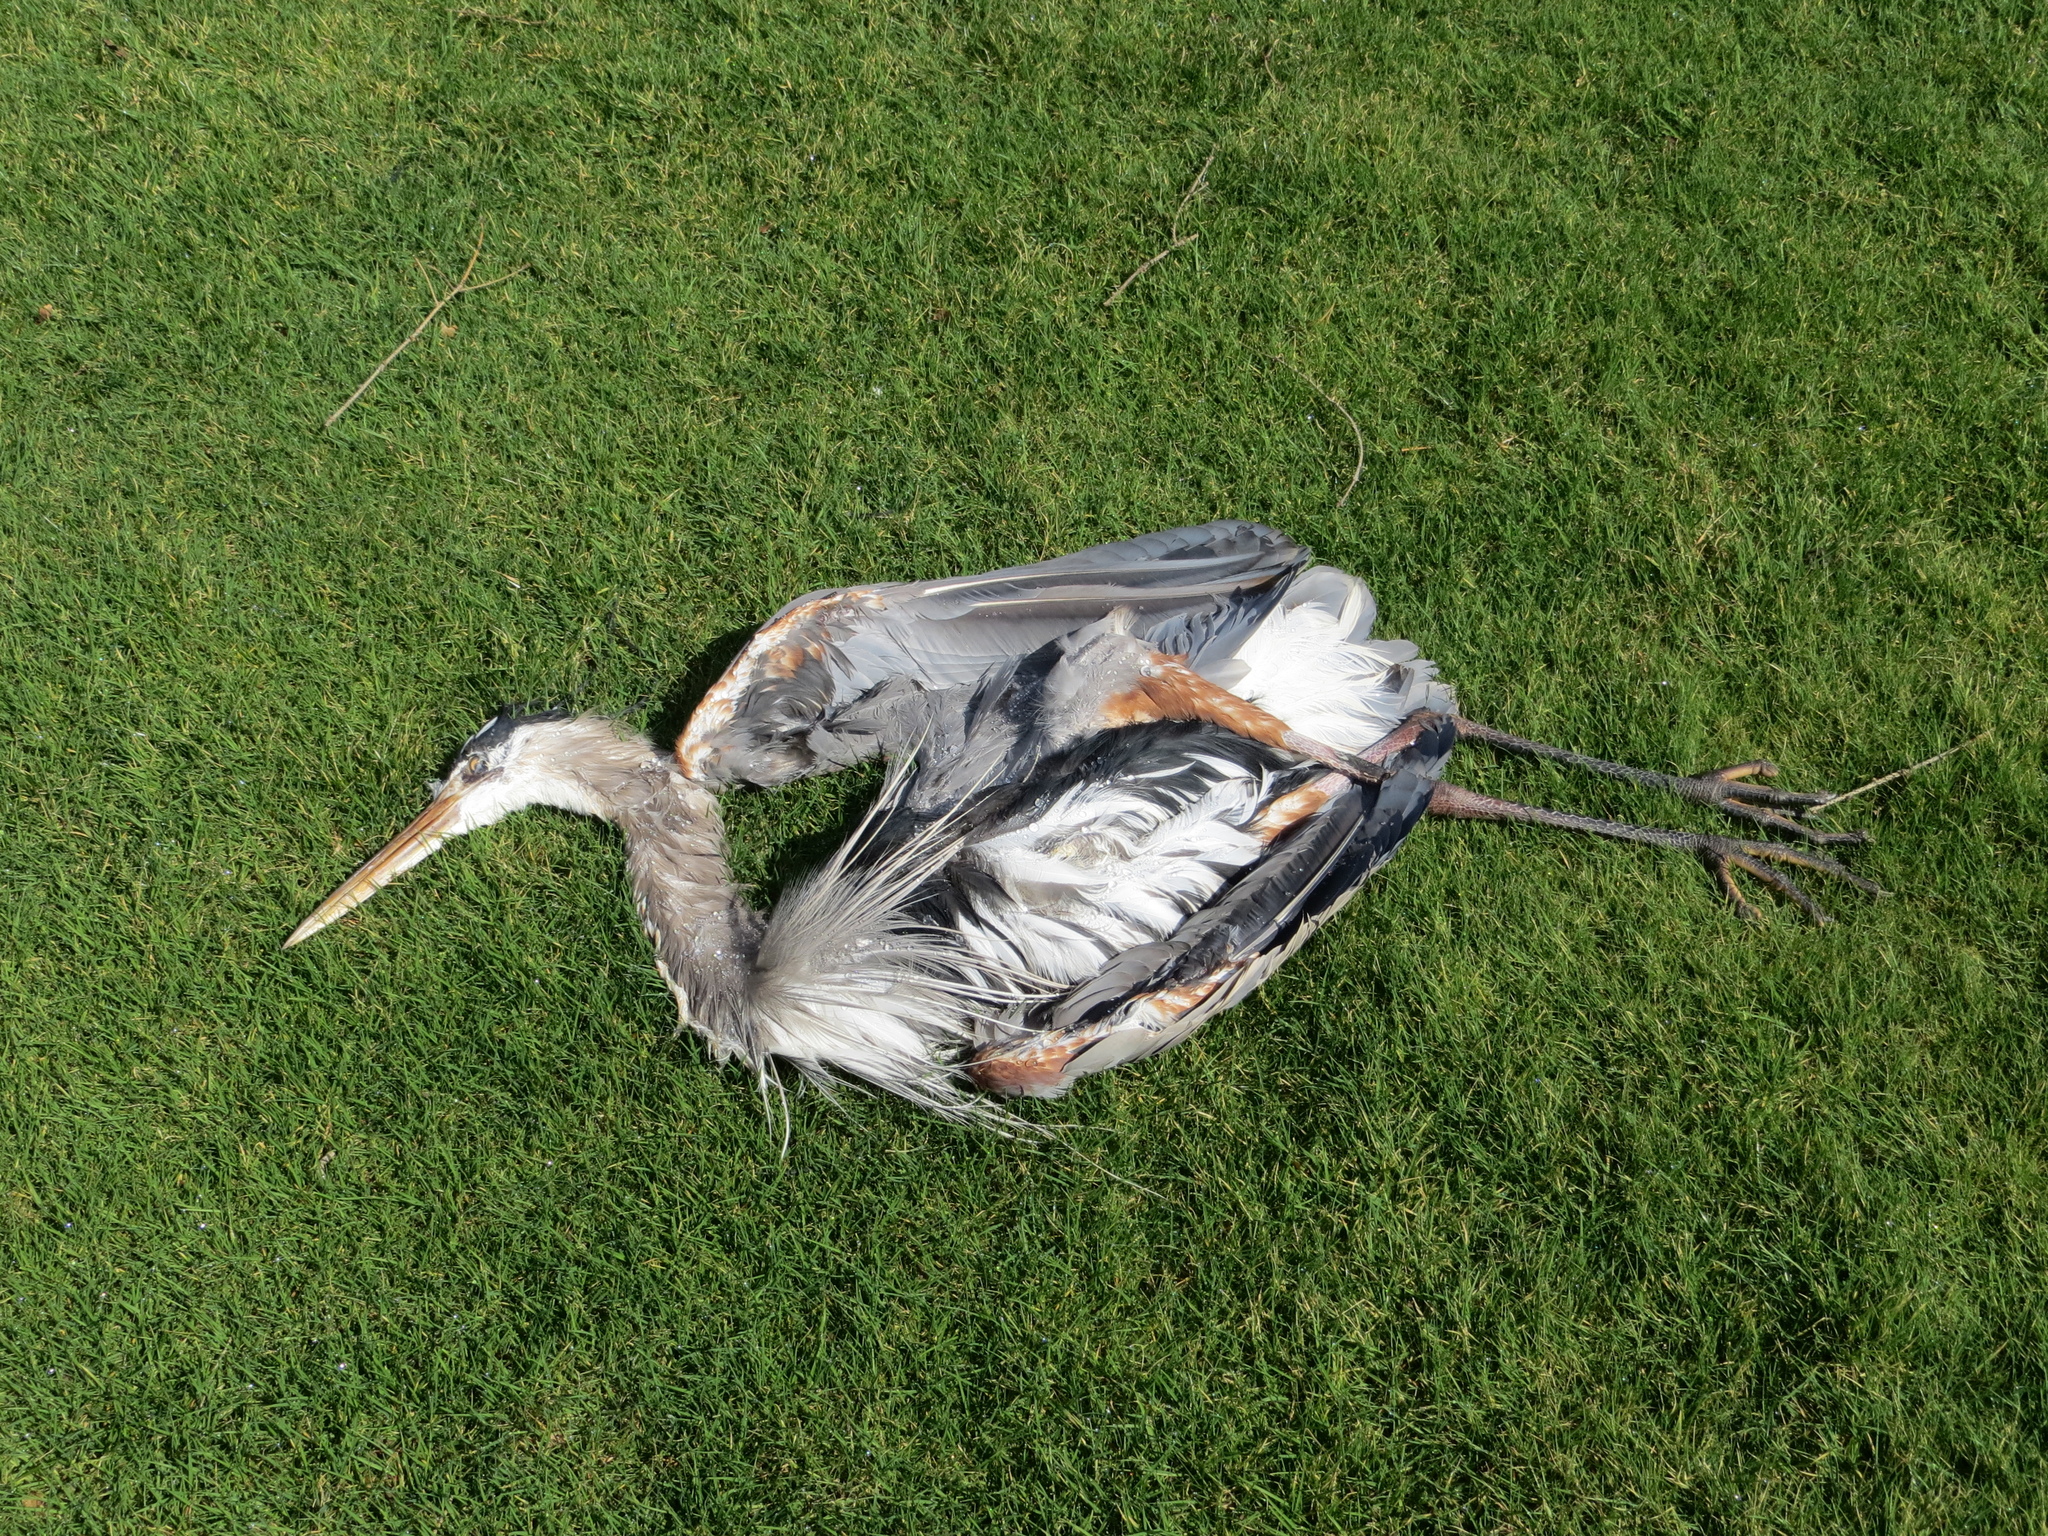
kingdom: Animalia
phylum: Chordata
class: Aves
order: Pelecaniformes
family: Ardeidae
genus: Ardea
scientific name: Ardea herodias
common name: Great blue heron
